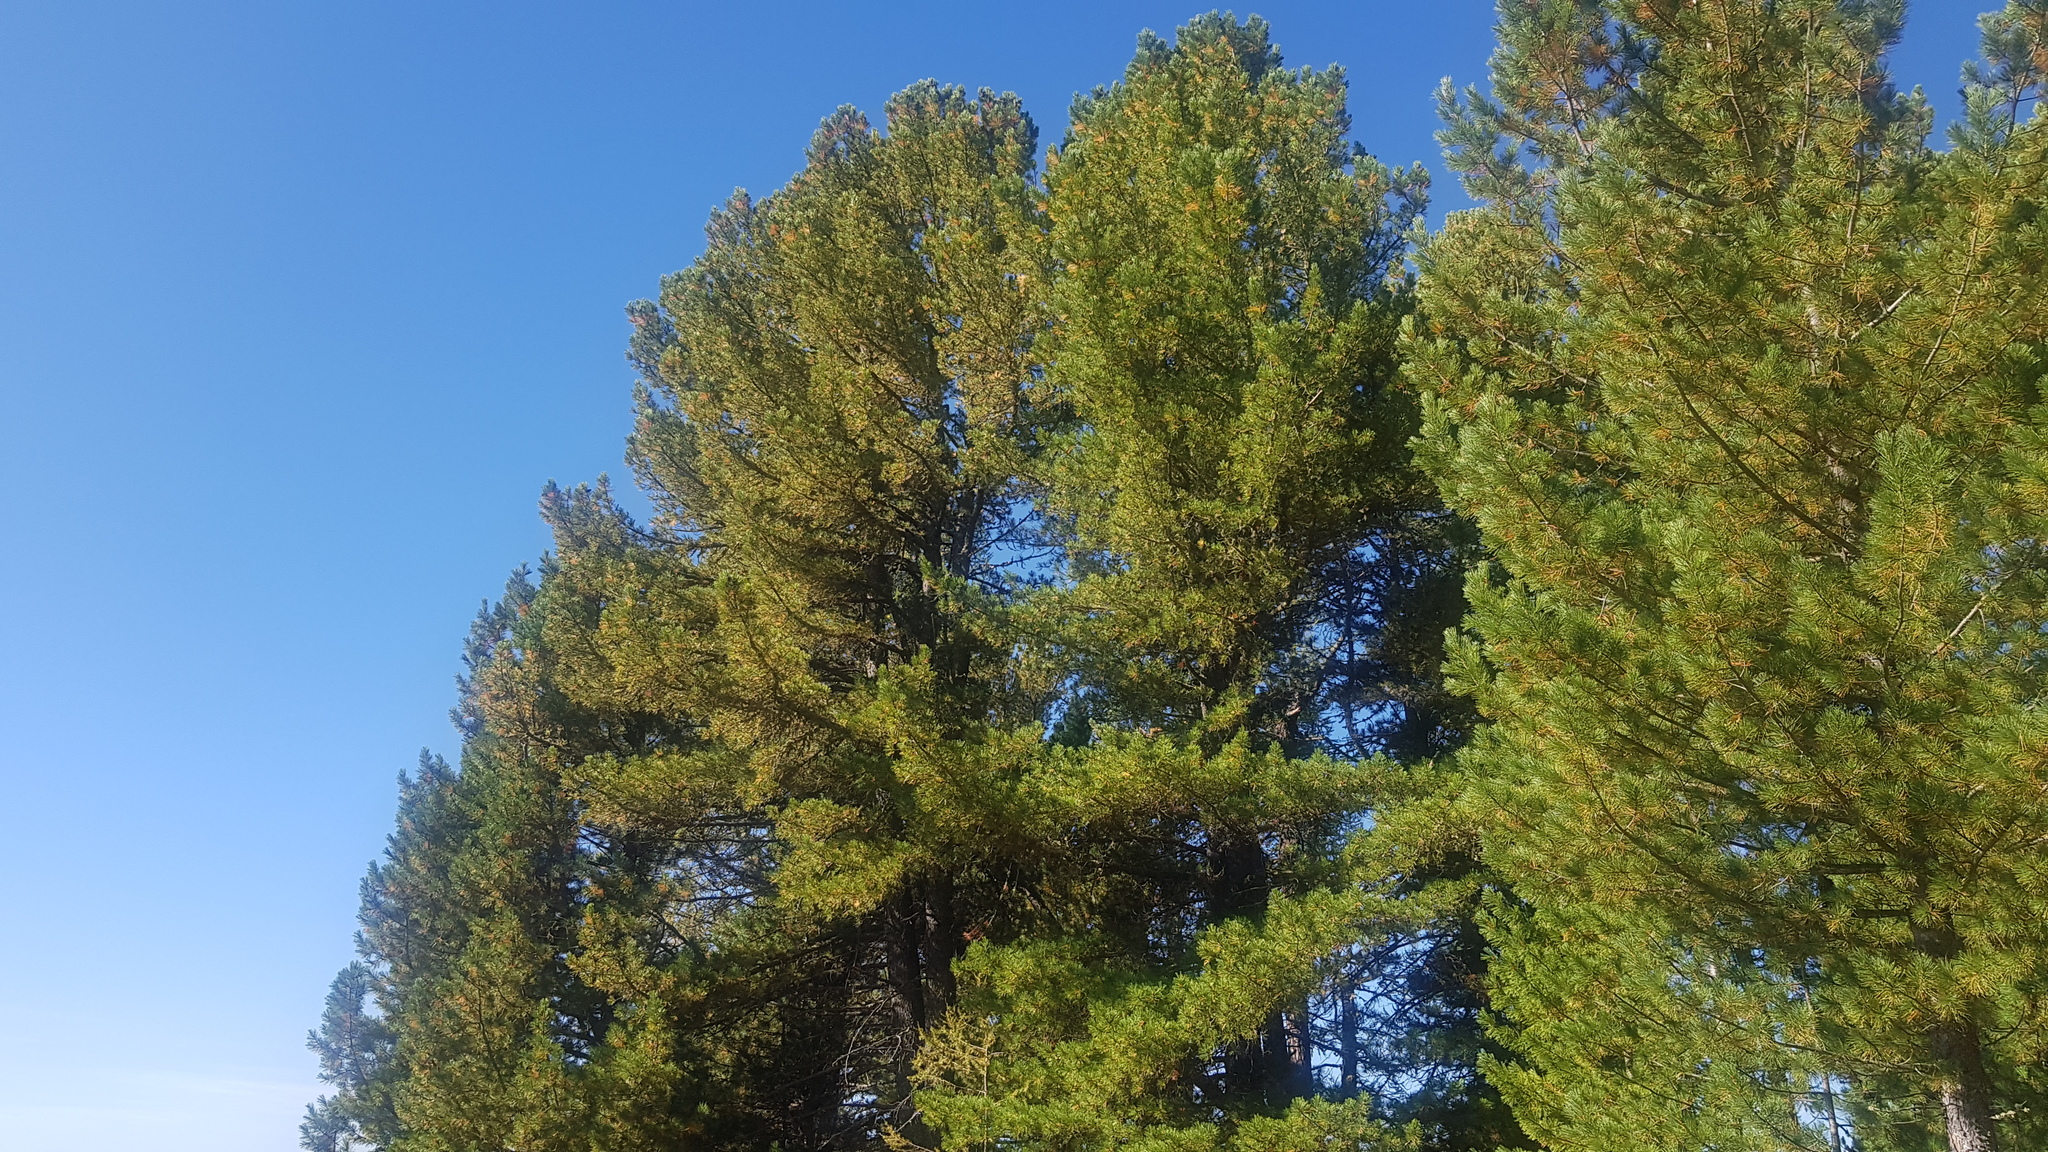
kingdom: Plantae
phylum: Tracheophyta
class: Pinopsida
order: Pinales
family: Pinaceae
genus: Pinus
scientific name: Pinus sibirica
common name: Siberian pine
